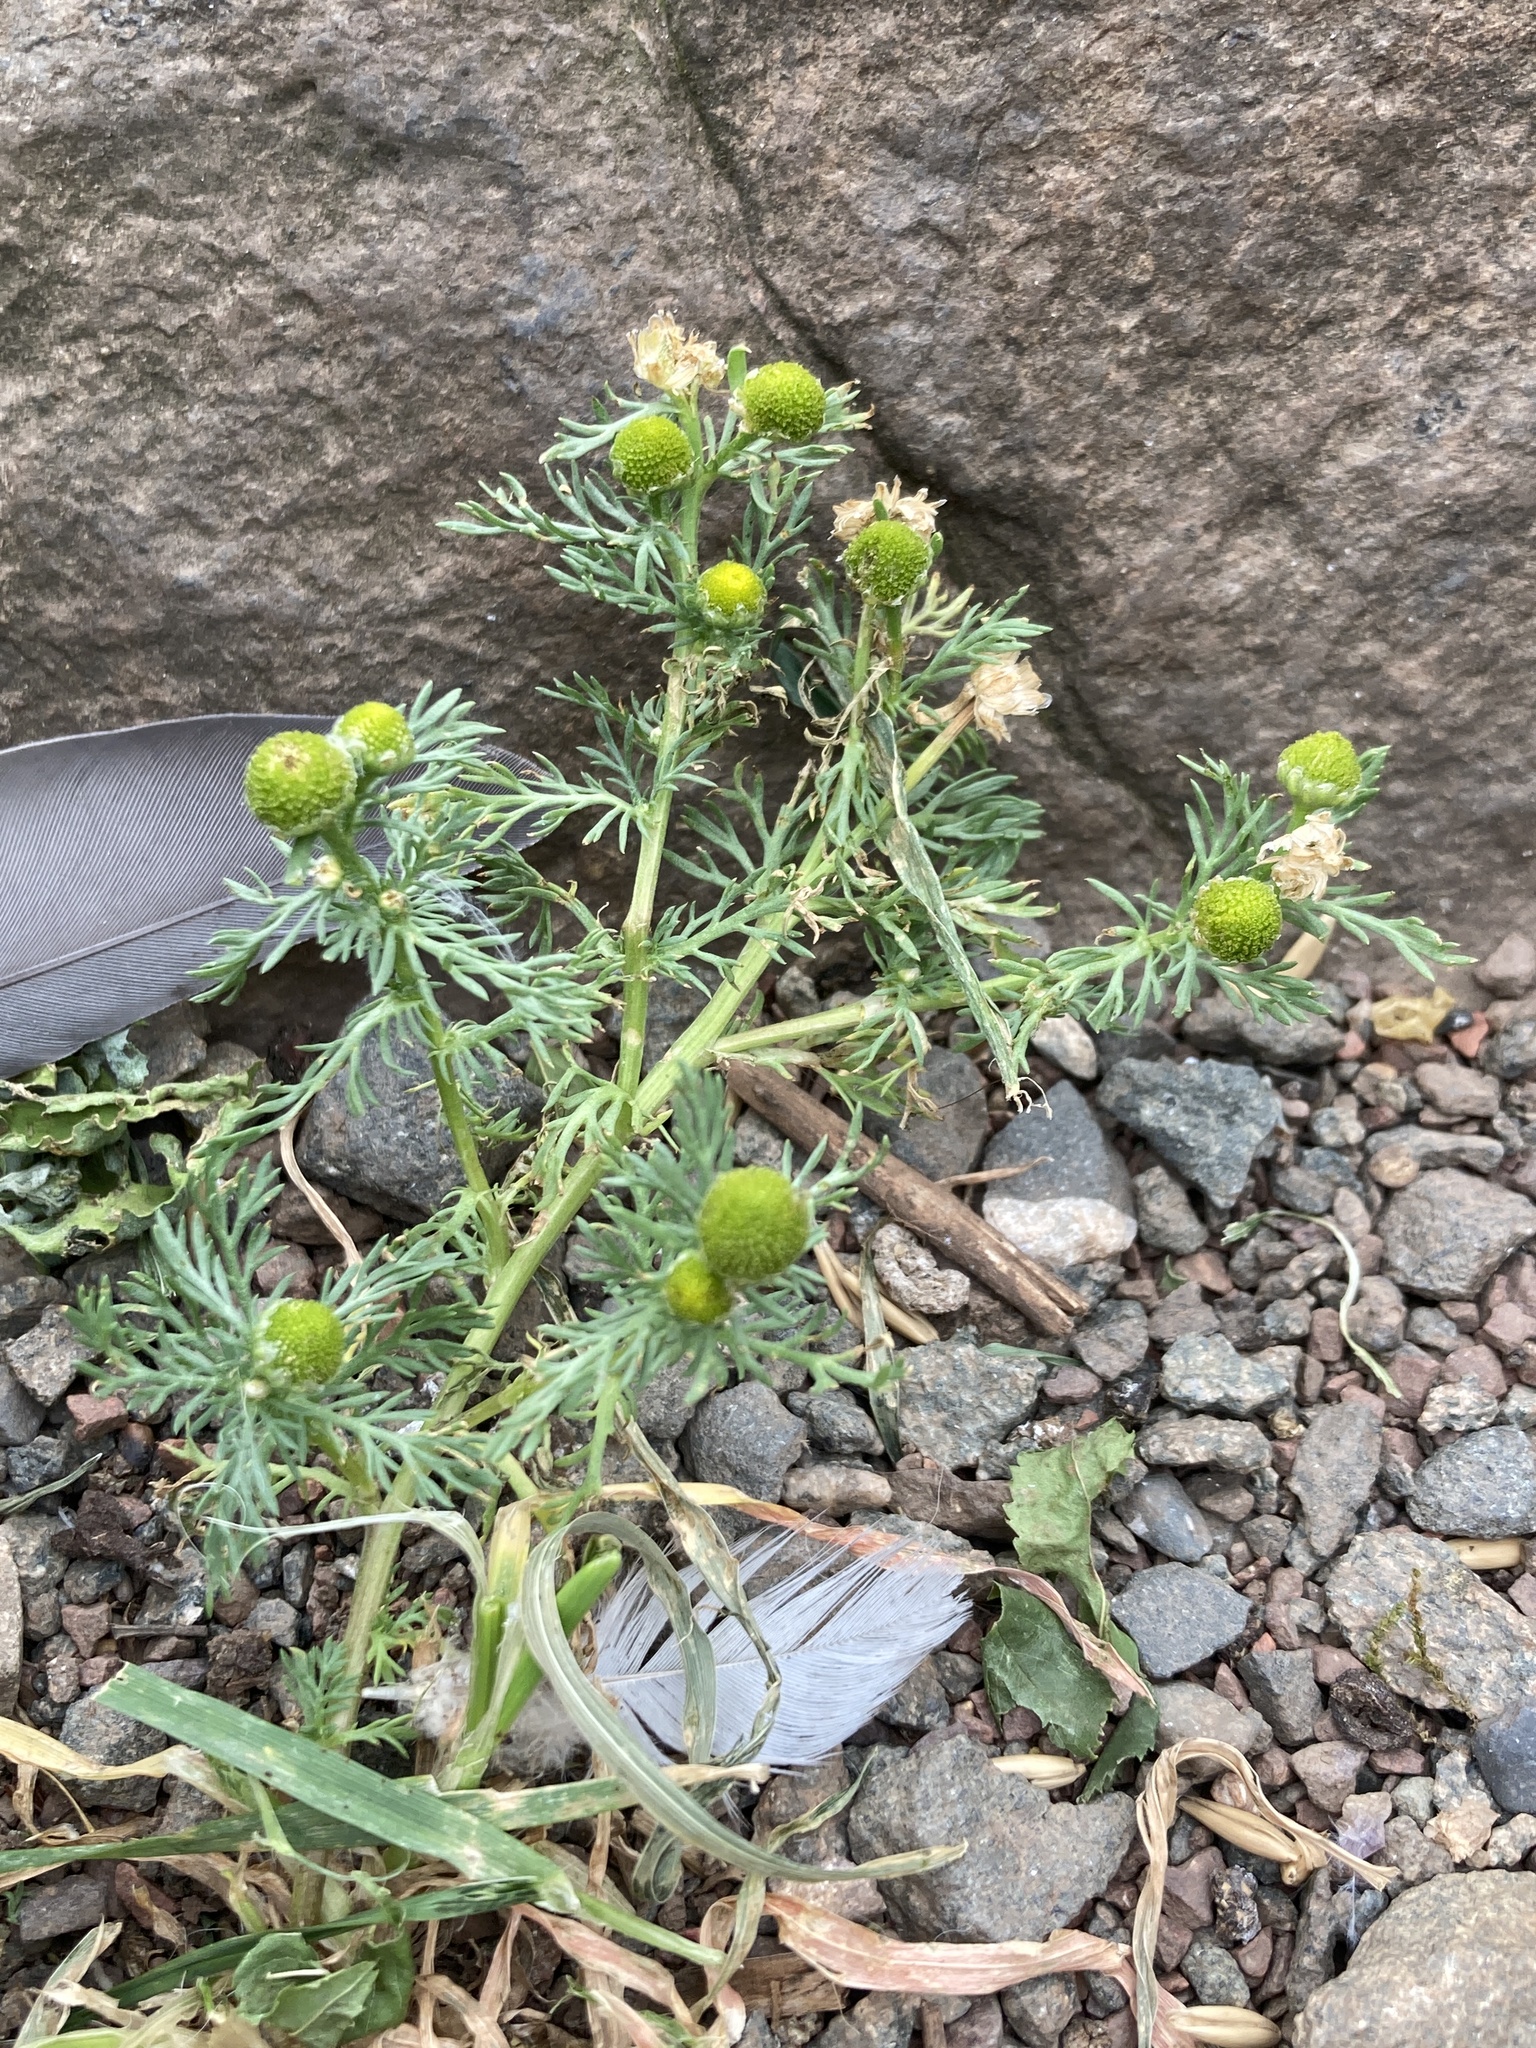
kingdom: Plantae
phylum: Tracheophyta
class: Magnoliopsida
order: Asterales
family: Asteraceae
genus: Matricaria
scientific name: Matricaria discoidea
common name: Disc mayweed
